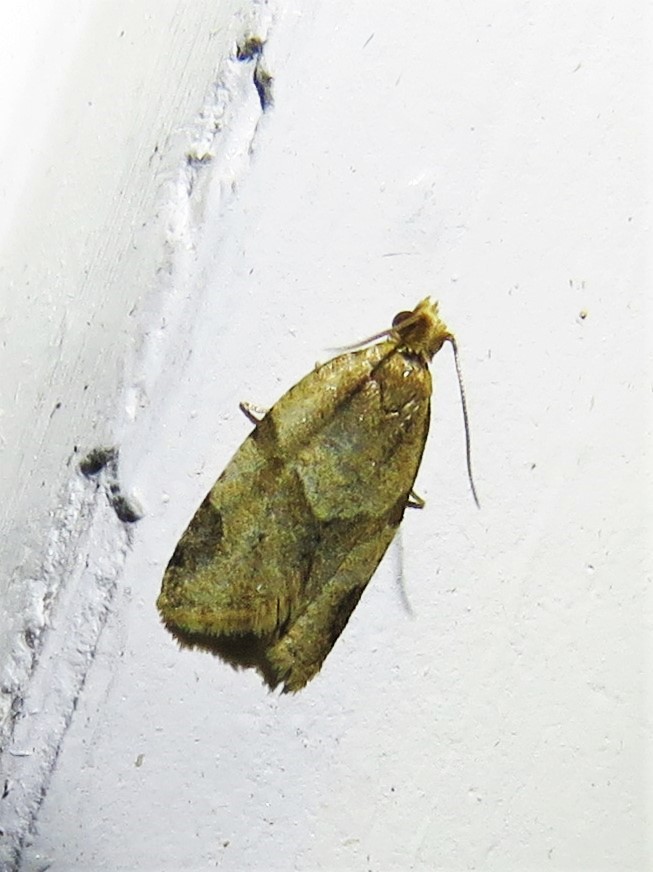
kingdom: Animalia
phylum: Arthropoda
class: Insecta
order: Lepidoptera
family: Tortricidae
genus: Clepsis
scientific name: Clepsis peritana
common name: Garden tortrix
